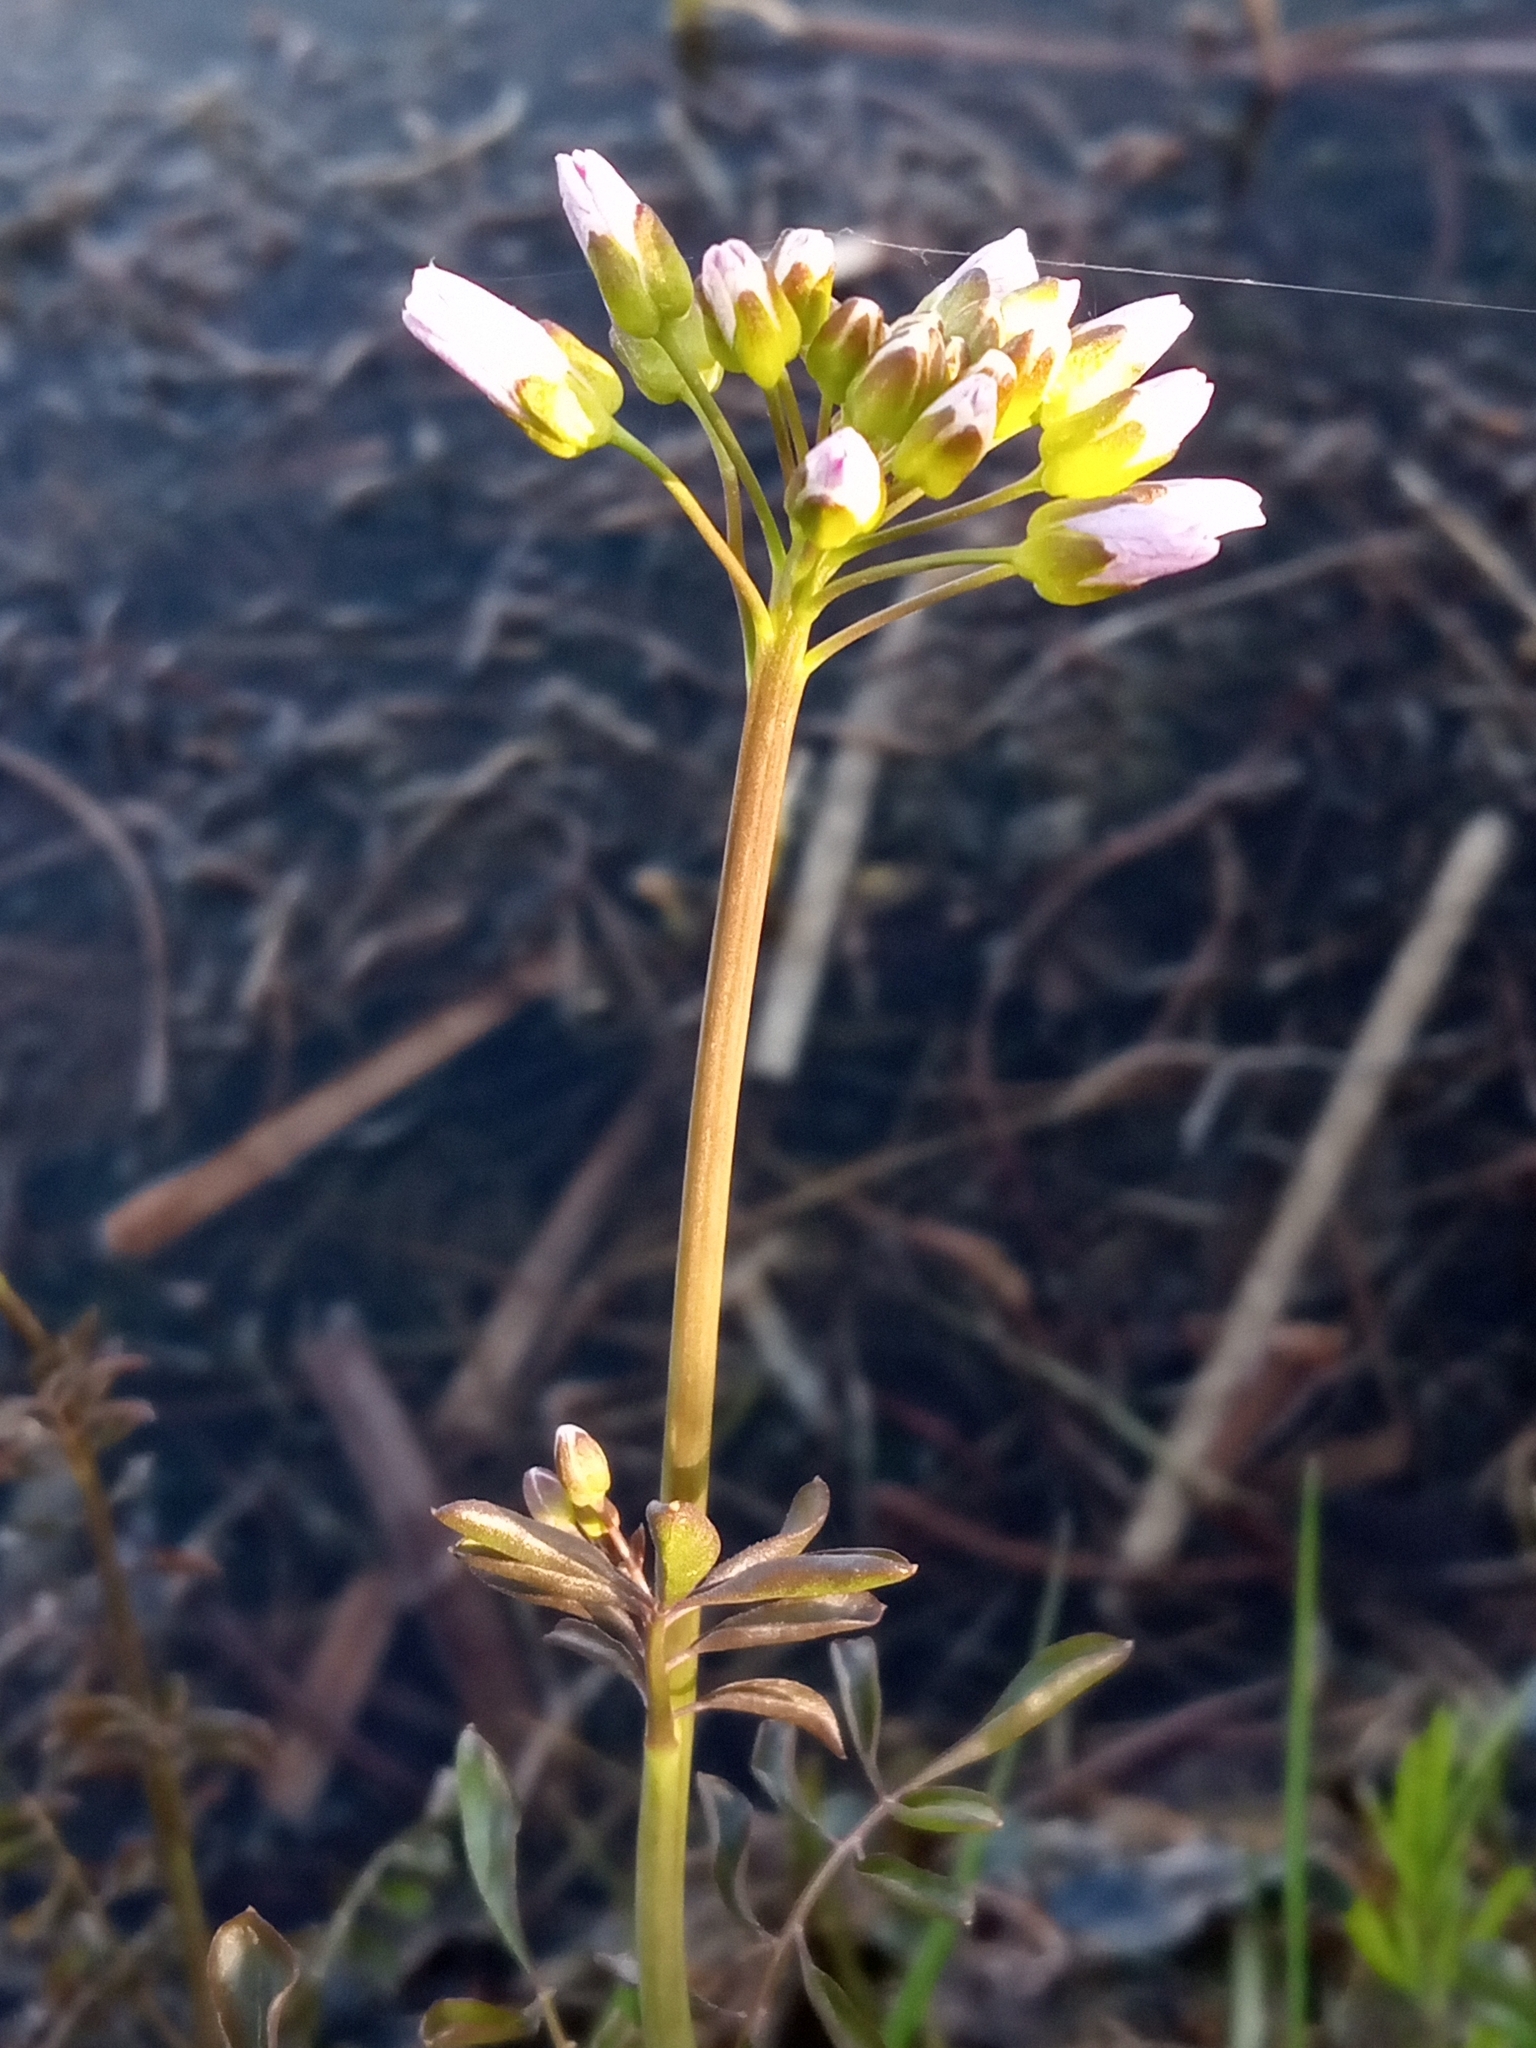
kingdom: Plantae
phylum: Tracheophyta
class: Magnoliopsida
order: Brassicales
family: Brassicaceae
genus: Cardamine
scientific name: Cardamine dentata
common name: Toothed bittercress
